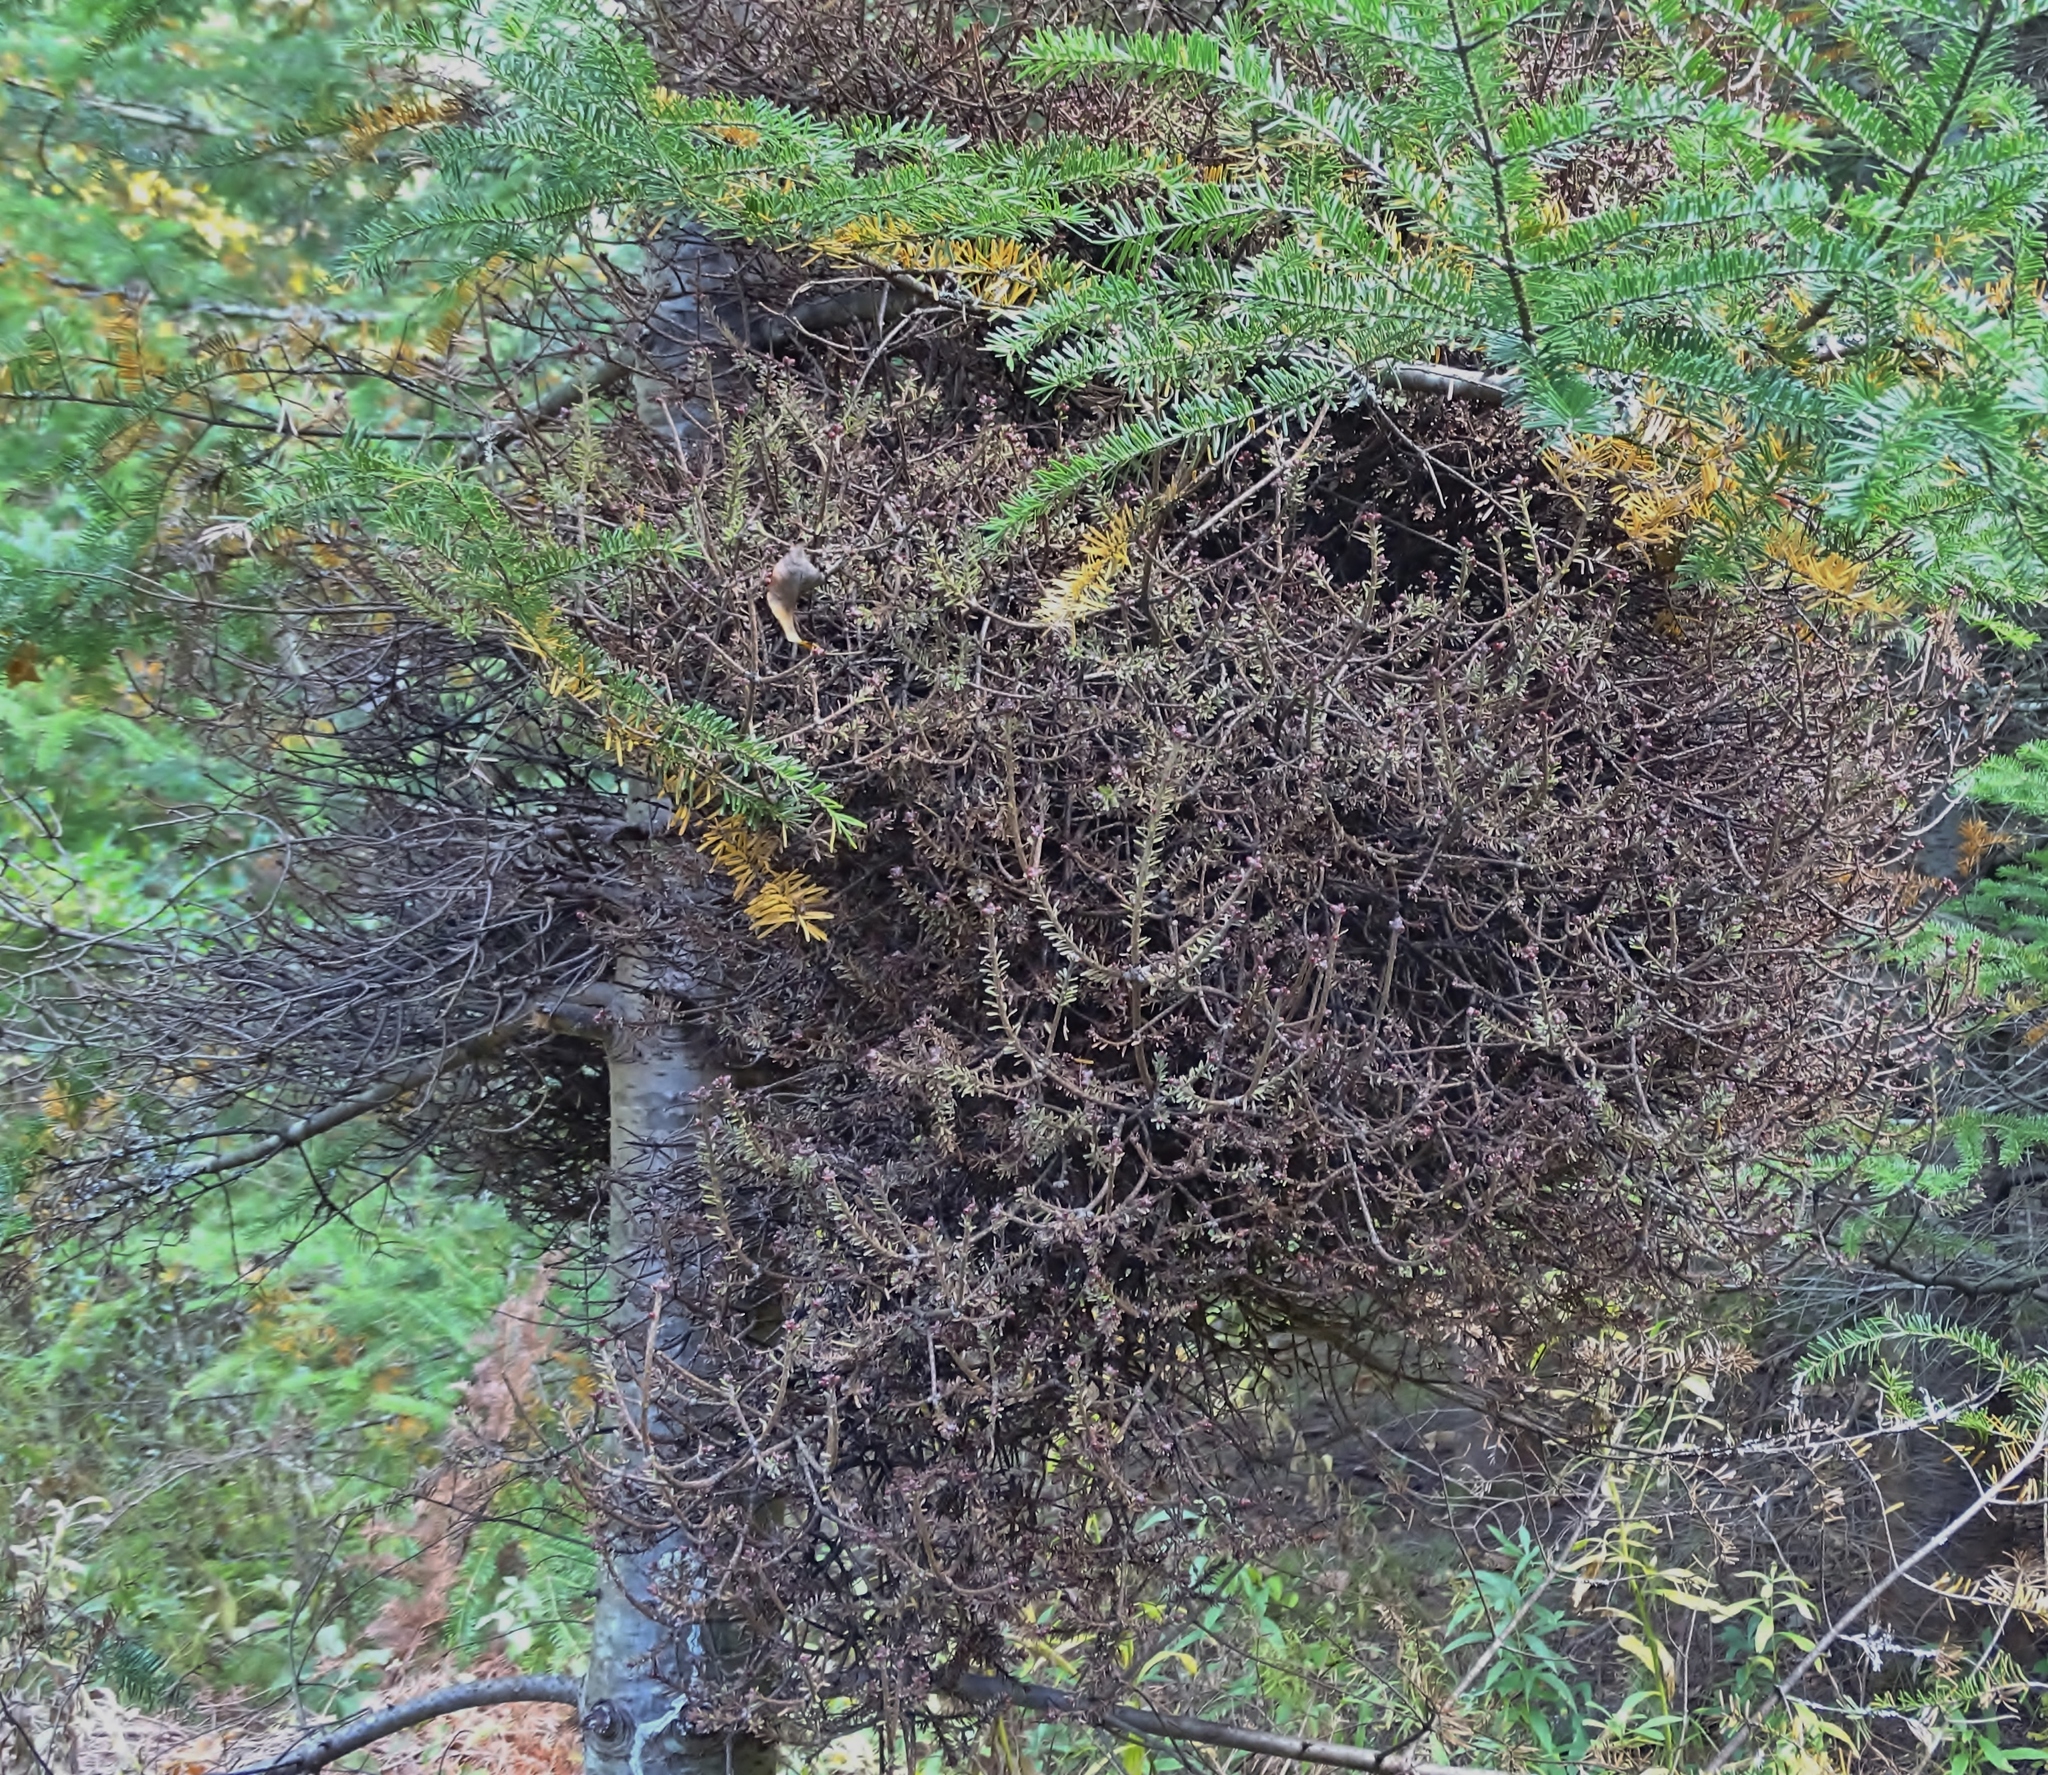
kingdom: Plantae
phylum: Tracheophyta
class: Pinopsida
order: Pinales
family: Pinaceae
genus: Abies
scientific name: Abies balsamea
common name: Balsam fir
